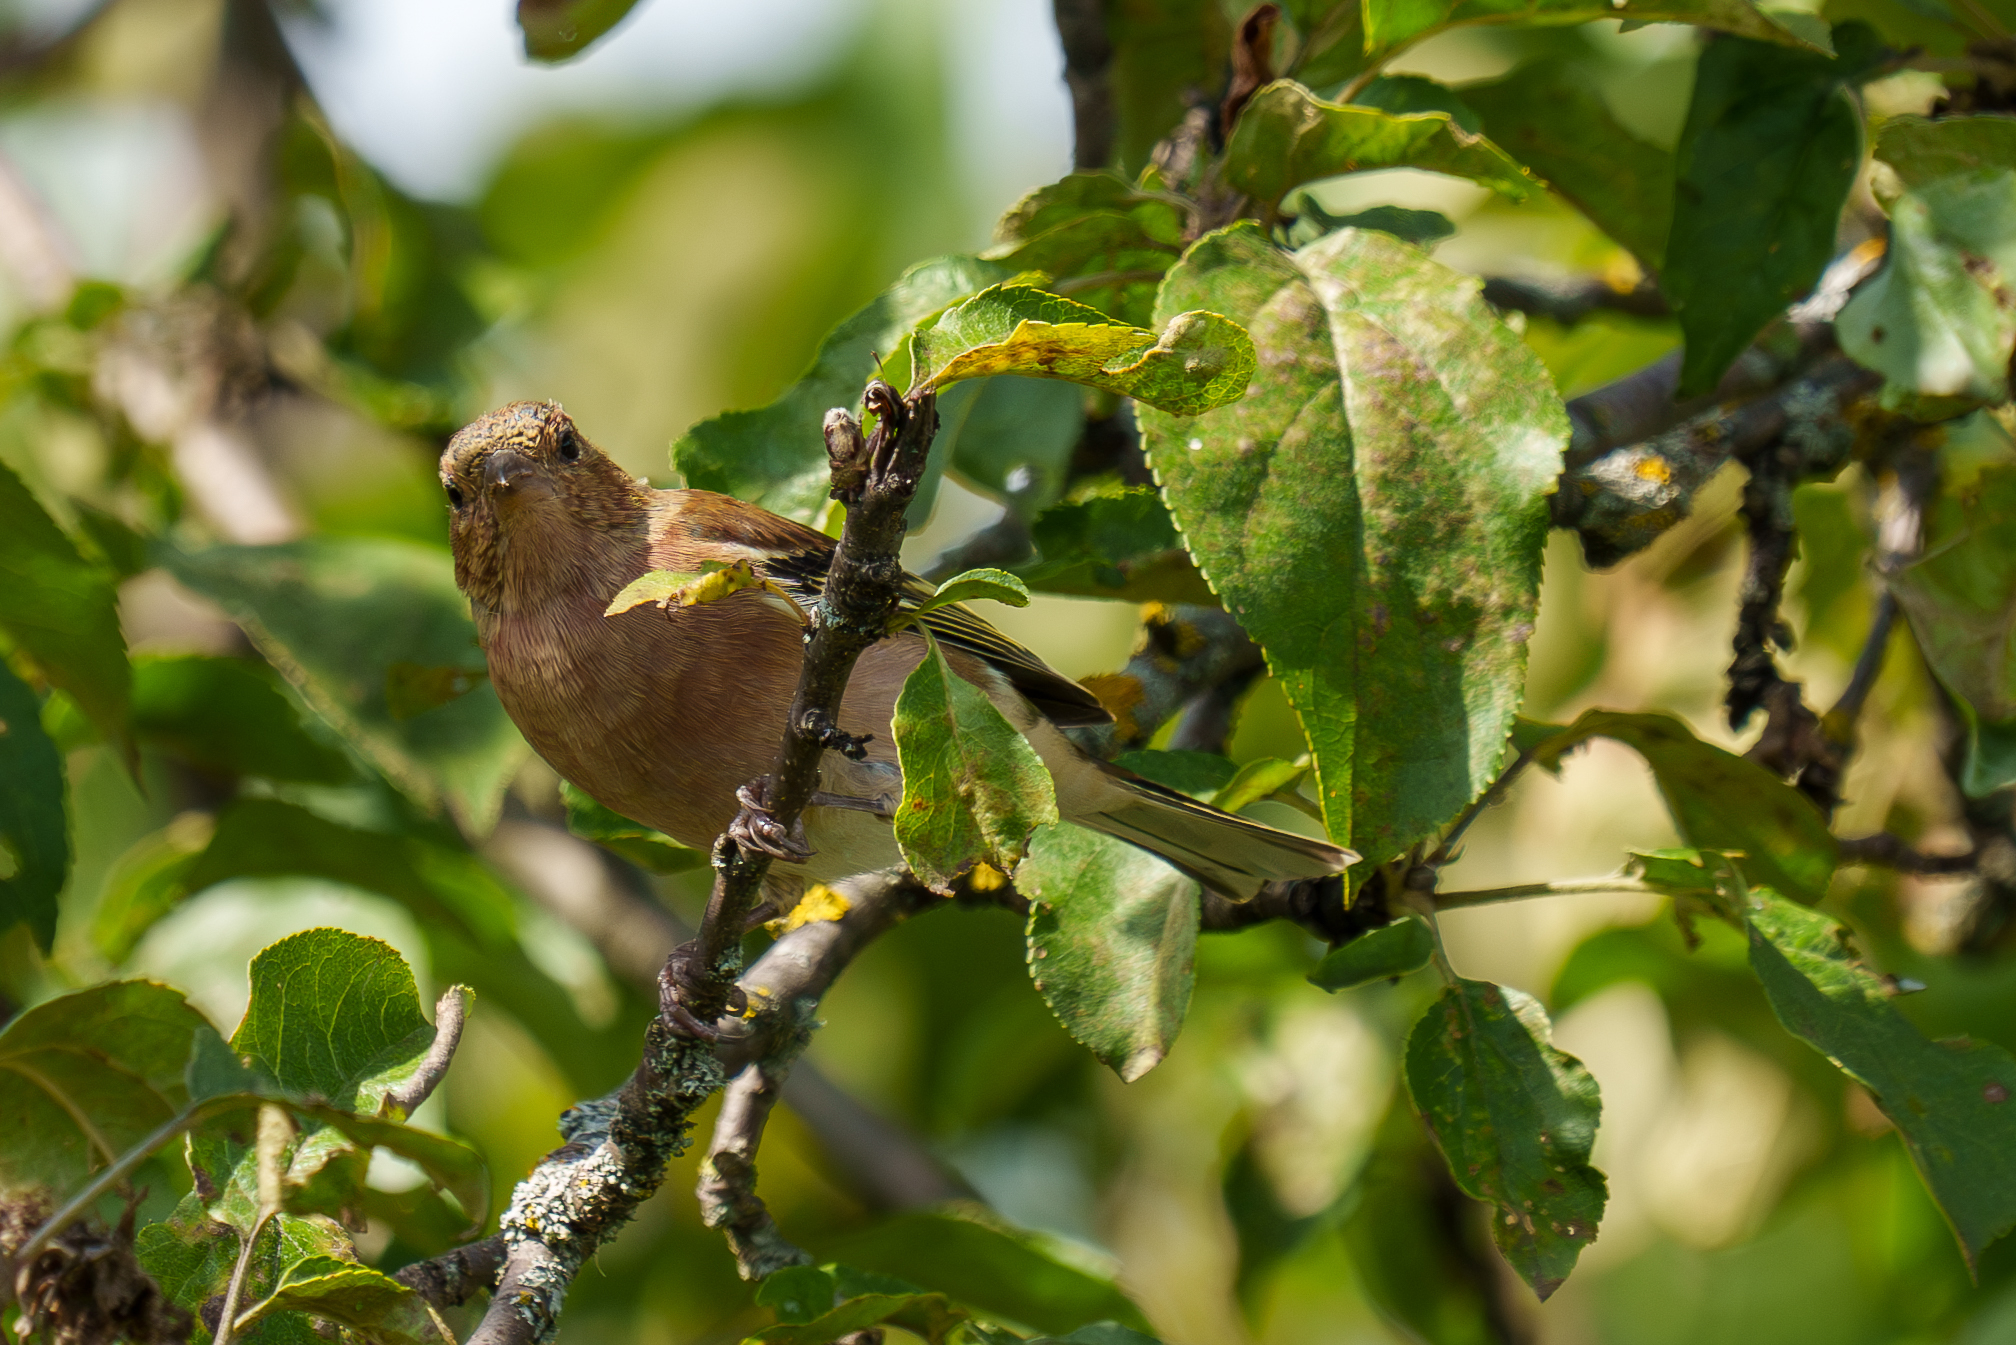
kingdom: Animalia
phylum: Chordata
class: Aves
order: Passeriformes
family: Fringillidae
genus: Fringilla
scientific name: Fringilla coelebs
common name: Common chaffinch
